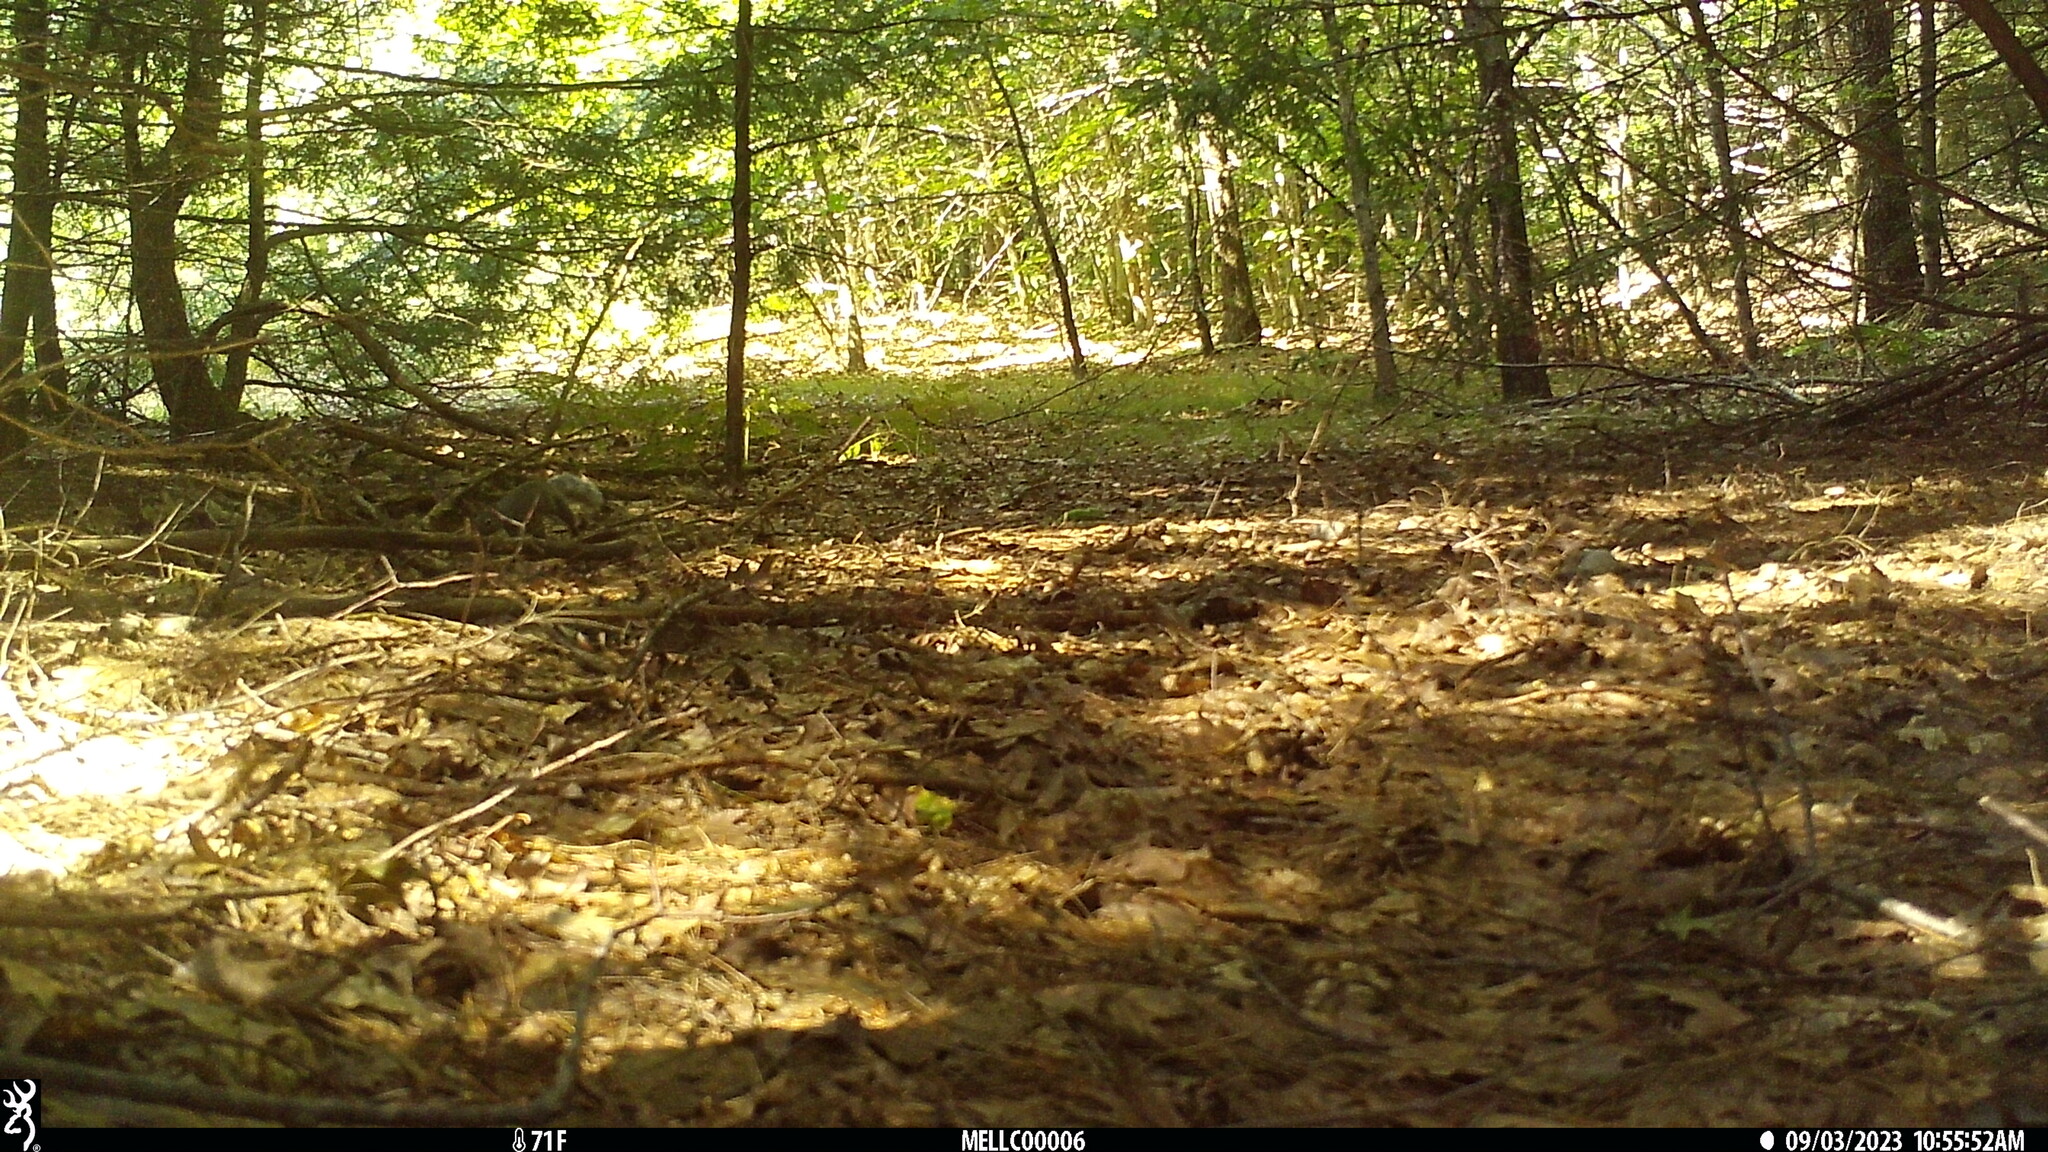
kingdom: Animalia
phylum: Chordata
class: Mammalia
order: Rodentia
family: Sciuridae
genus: Sciurus
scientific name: Sciurus carolinensis
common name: Eastern gray squirrel
